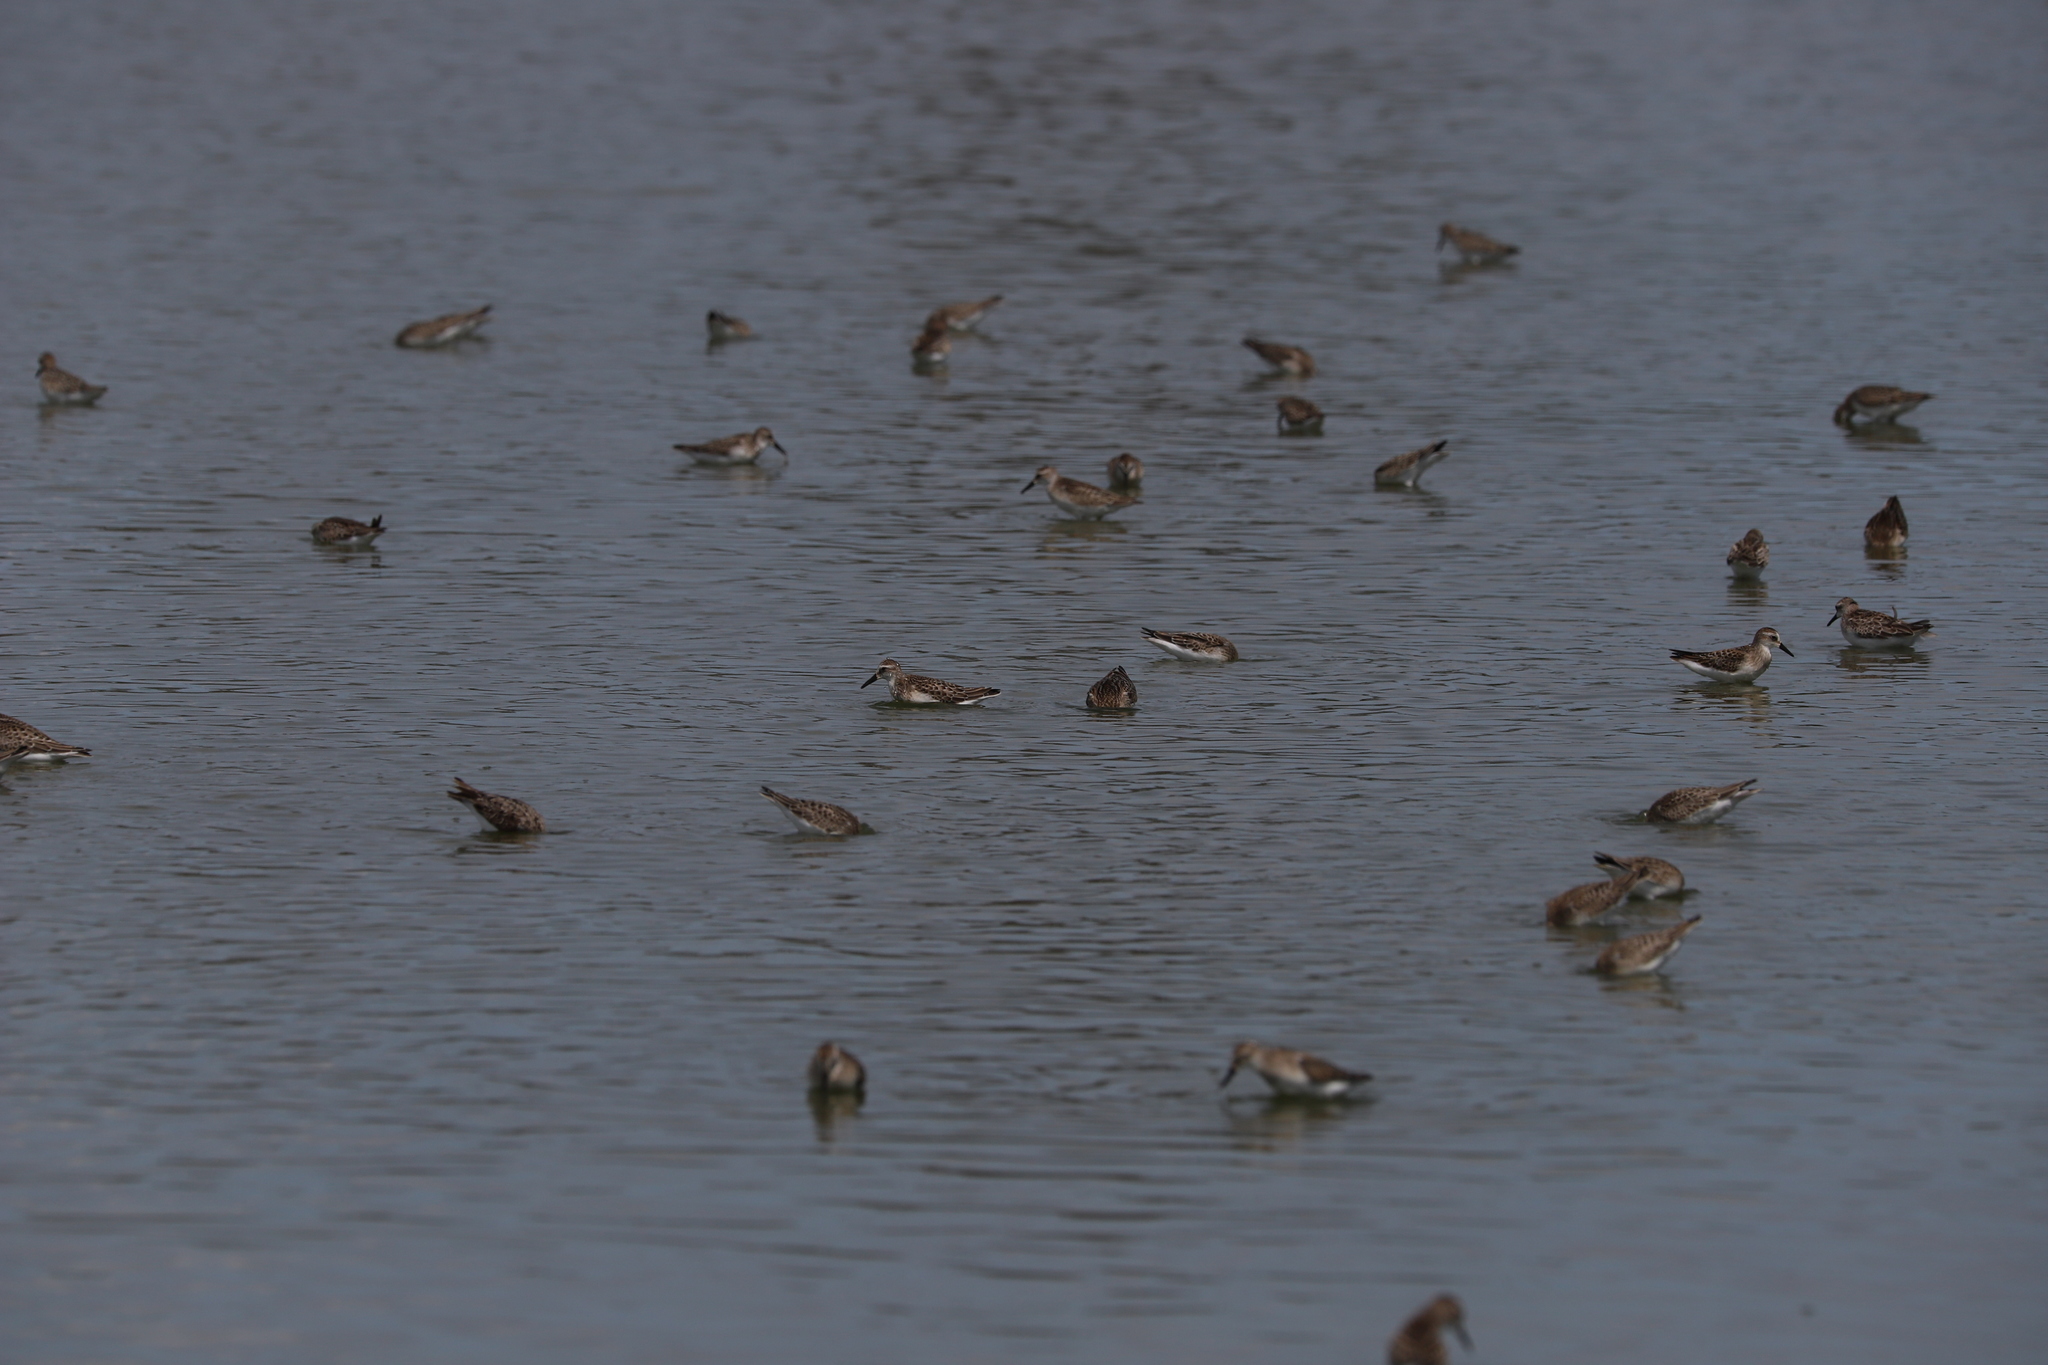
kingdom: Animalia
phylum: Chordata
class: Aves
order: Charadriiformes
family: Scolopacidae
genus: Calidris
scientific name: Calidris pusilla
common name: Semipalmated sandpiper
